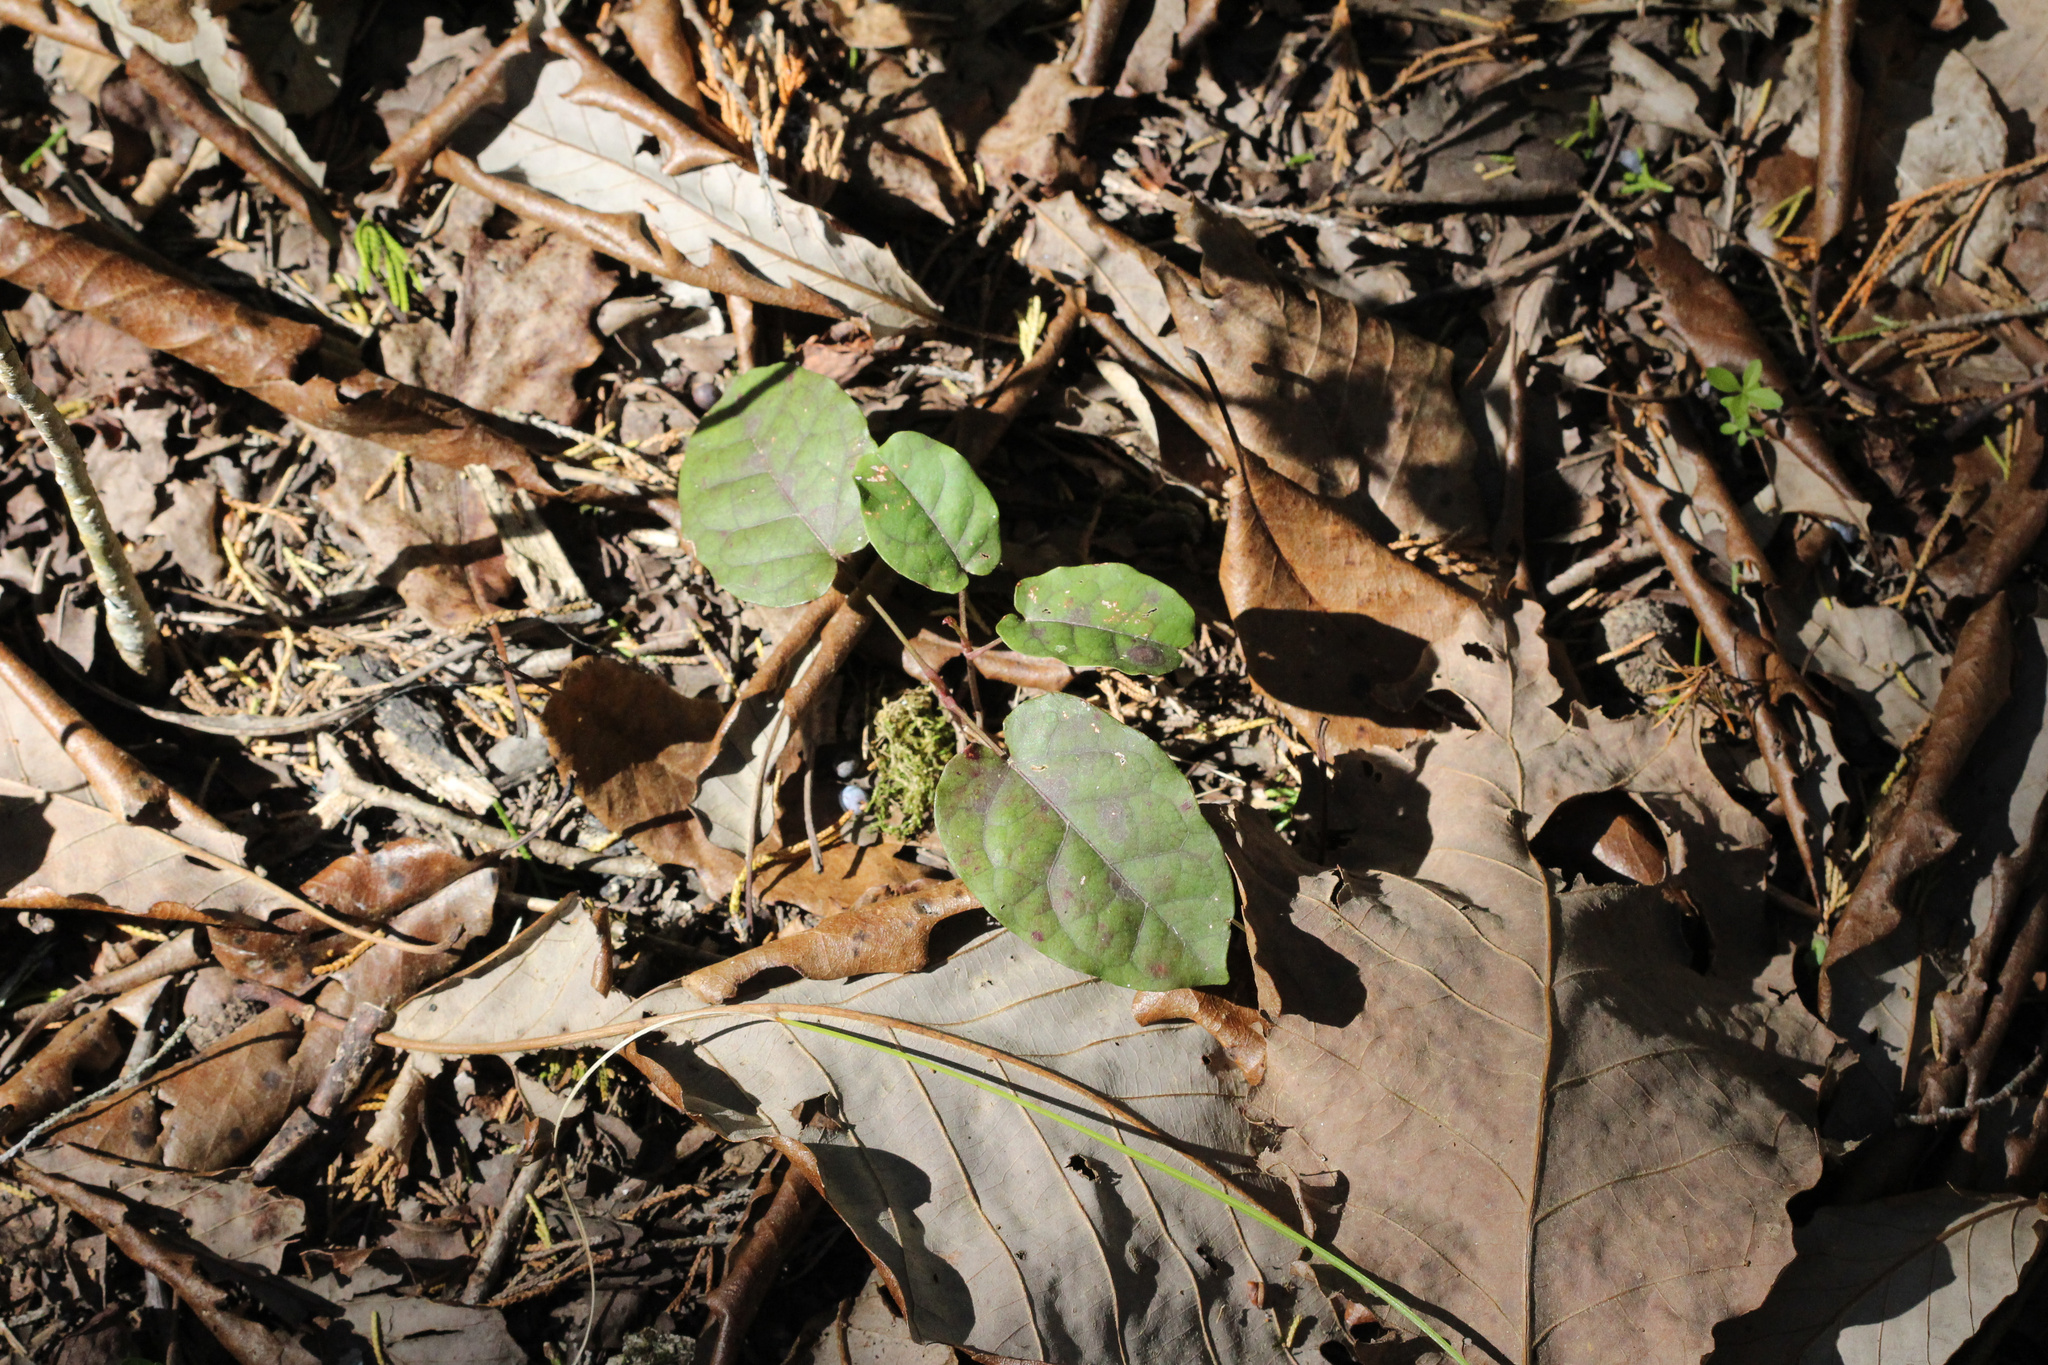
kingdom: Plantae
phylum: Tracheophyta
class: Magnoliopsida
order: Lamiales
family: Bignoniaceae
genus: Bignonia
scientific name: Bignonia capreolata
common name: Crossvine
